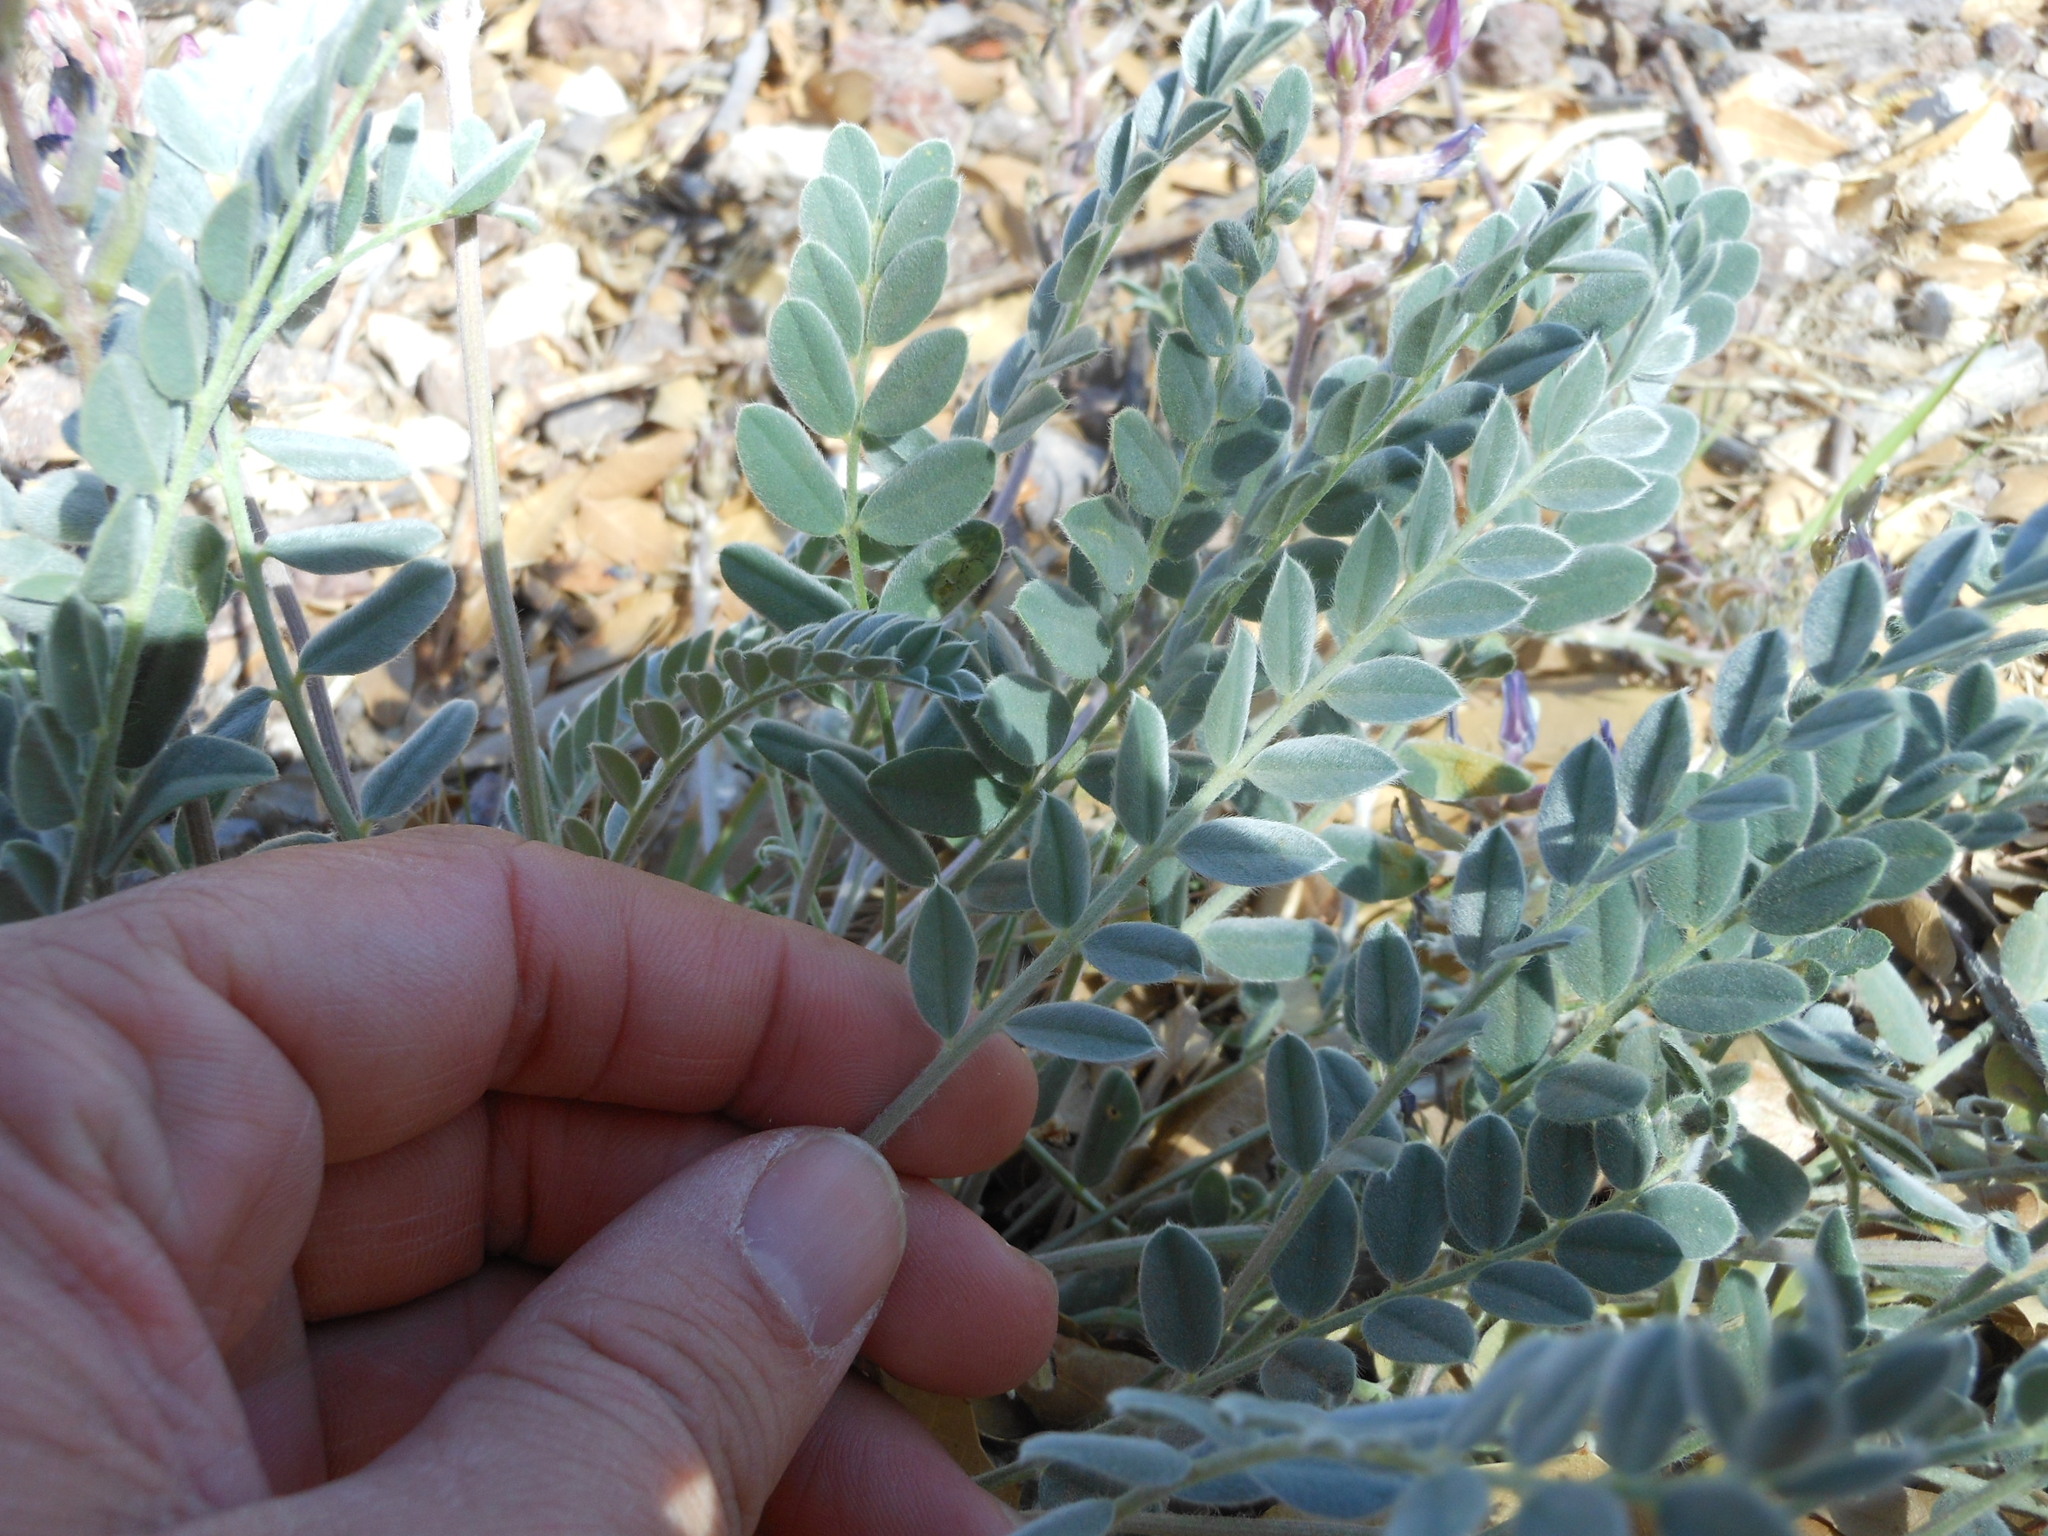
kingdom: Plantae
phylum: Tracheophyta
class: Magnoliopsida
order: Fabales
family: Fabaceae
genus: Astragalus
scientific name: Astragalus mollissimus
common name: Woolly locoweed
